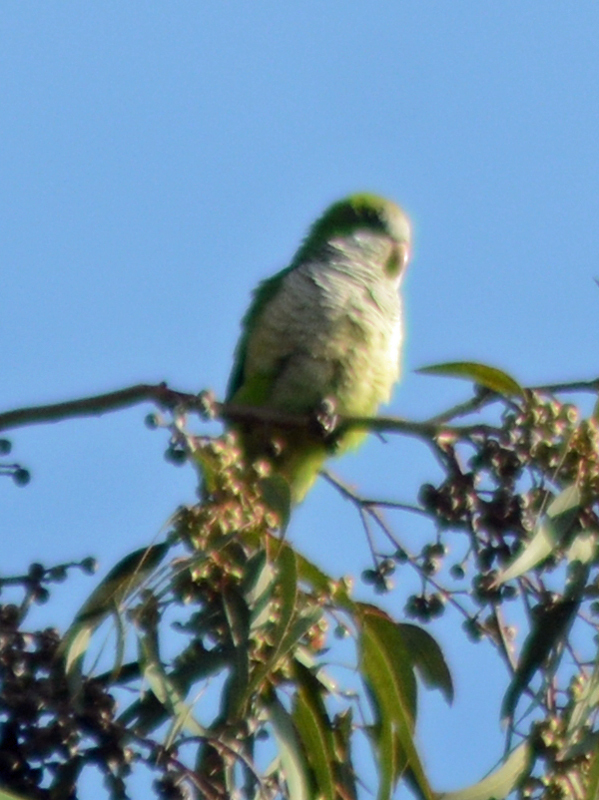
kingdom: Animalia
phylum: Chordata
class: Aves
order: Psittaciformes
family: Psittacidae
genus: Myiopsitta
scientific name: Myiopsitta monachus
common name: Monk parakeet
